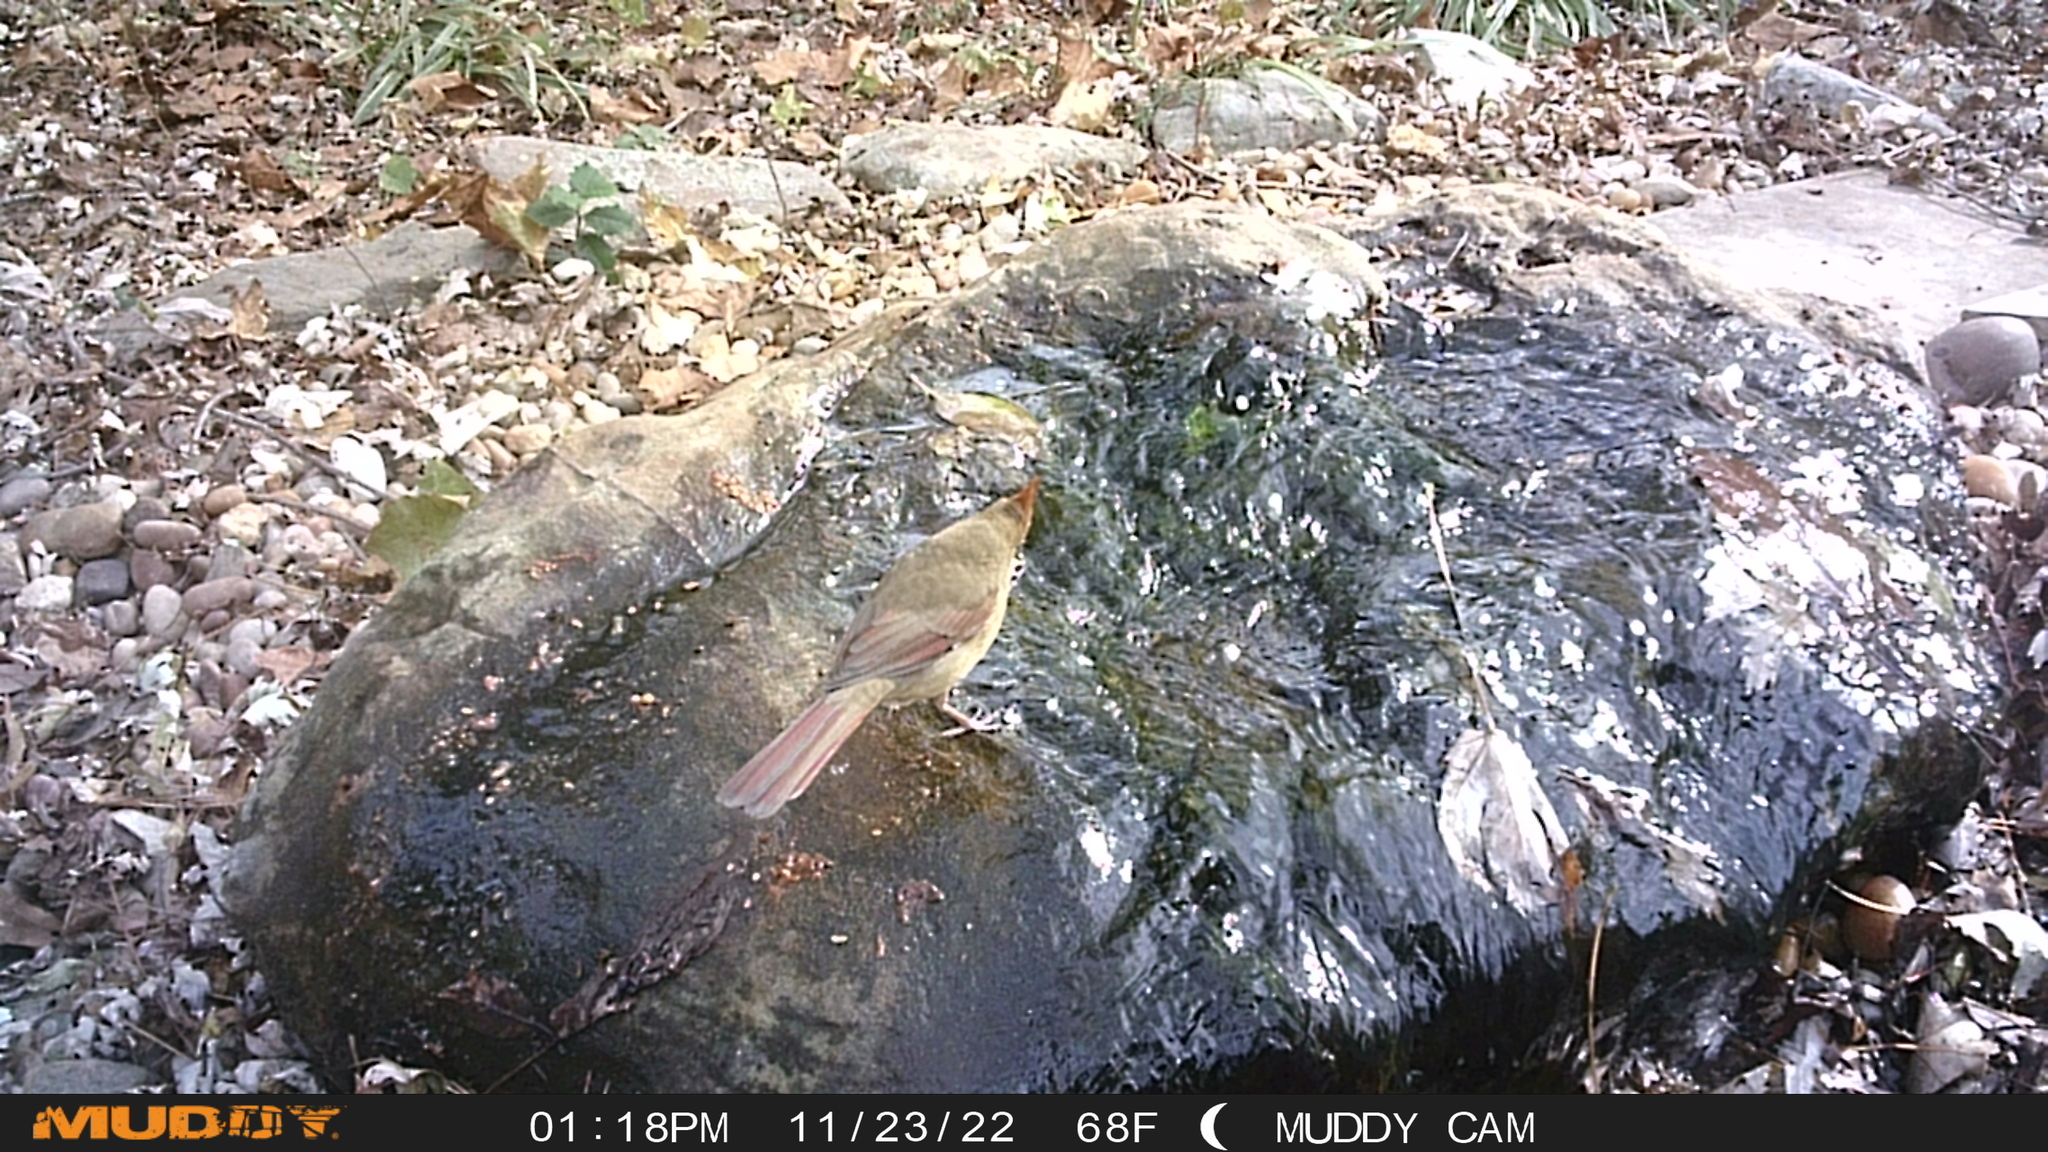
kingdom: Animalia
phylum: Chordata
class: Aves
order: Passeriformes
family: Cardinalidae
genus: Cardinalis
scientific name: Cardinalis cardinalis
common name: Northern cardinal
